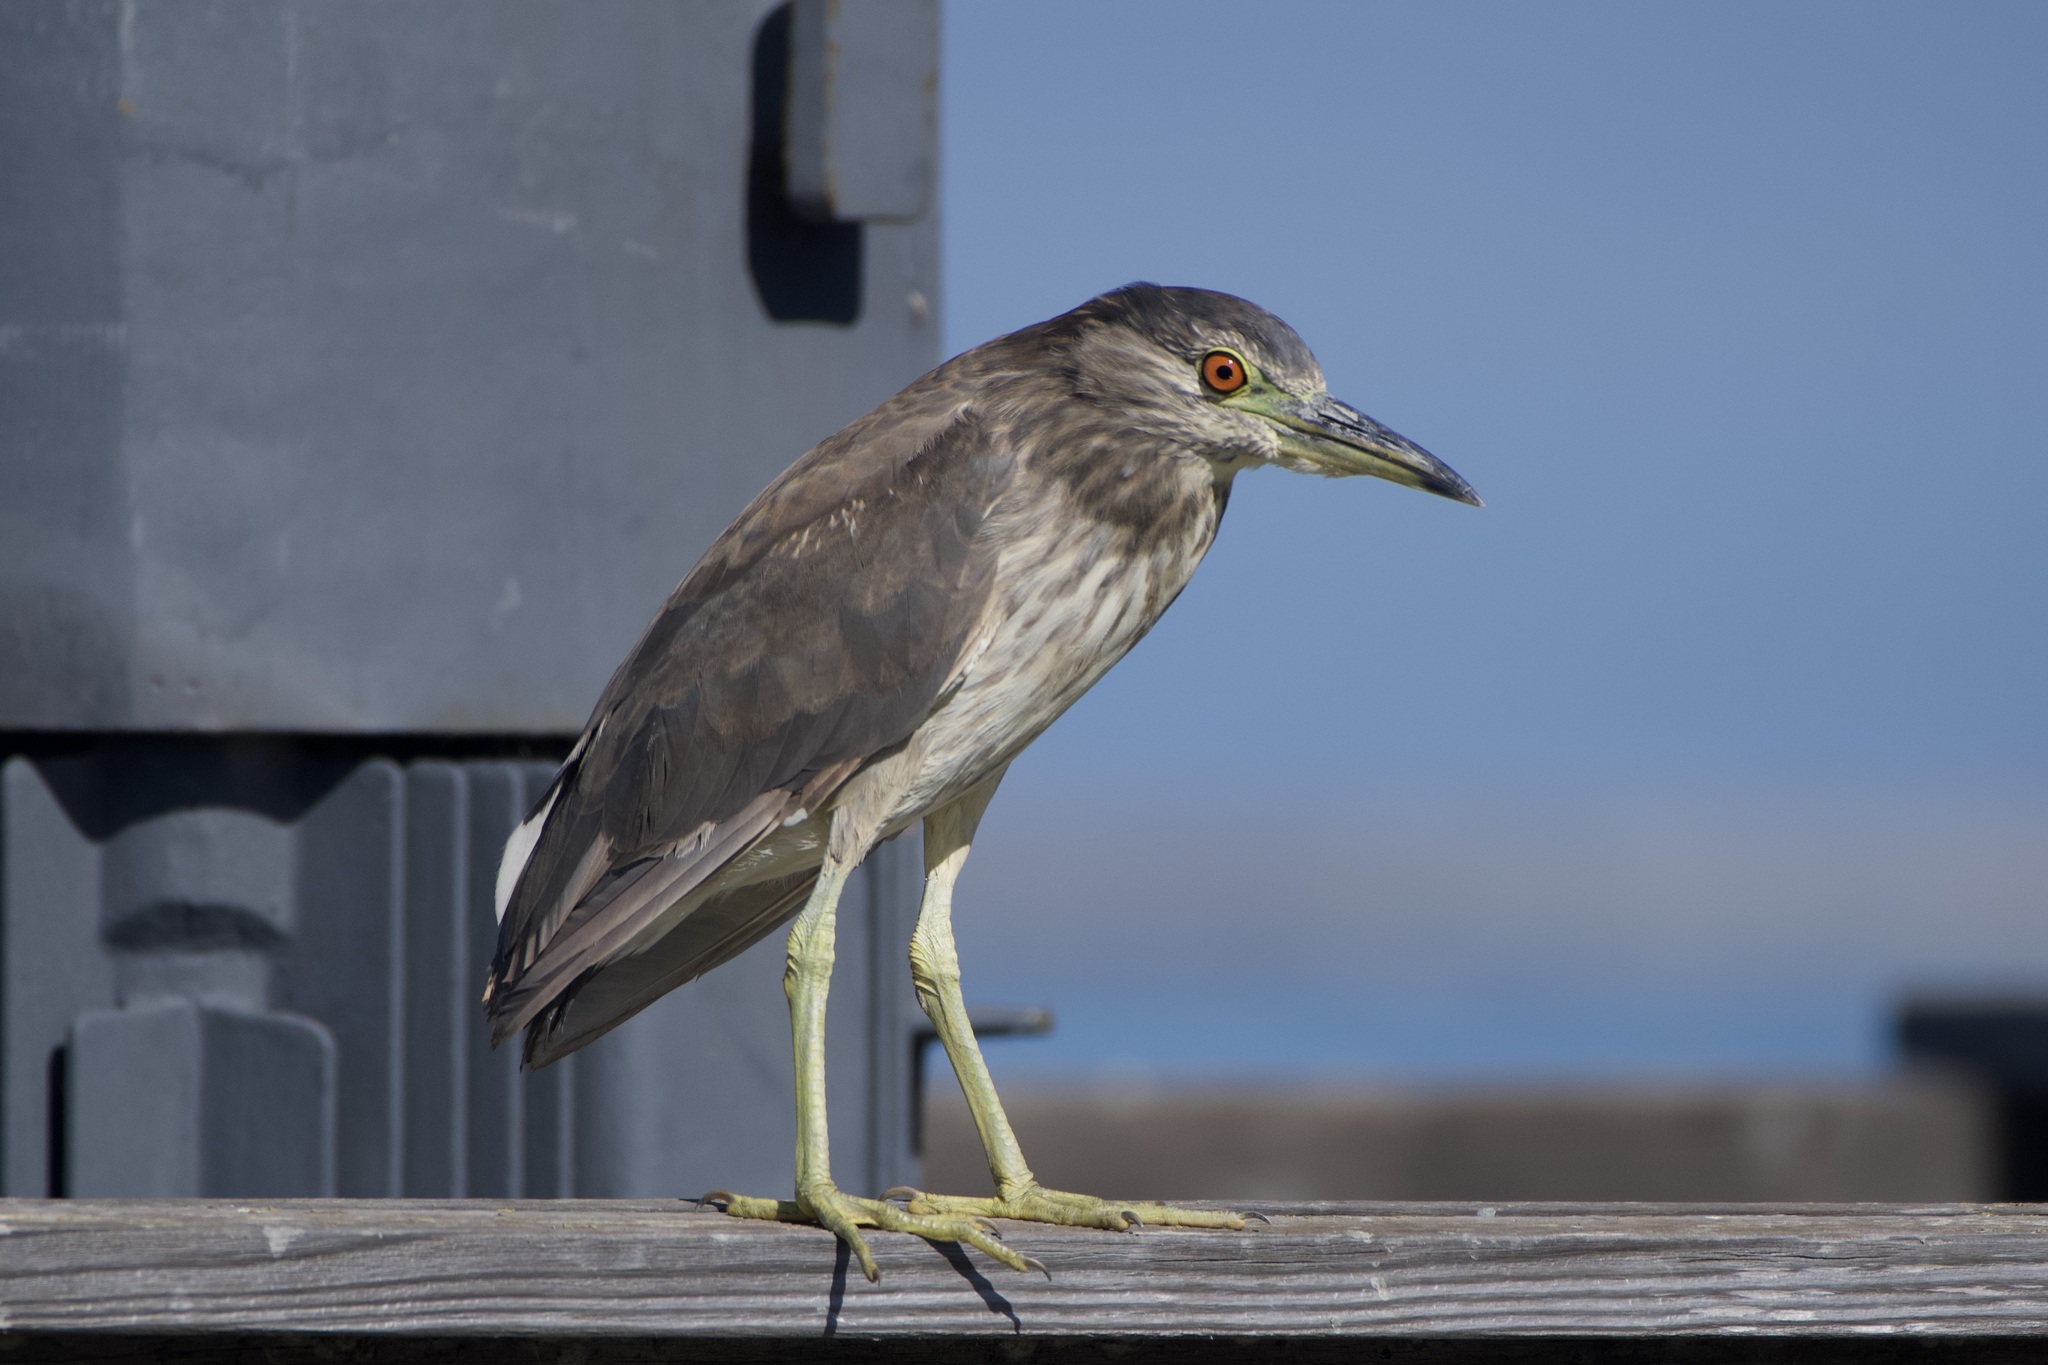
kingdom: Animalia
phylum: Chordata
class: Aves
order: Pelecaniformes
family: Ardeidae
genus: Nycticorax
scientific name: Nycticorax nycticorax
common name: Black-crowned night heron
